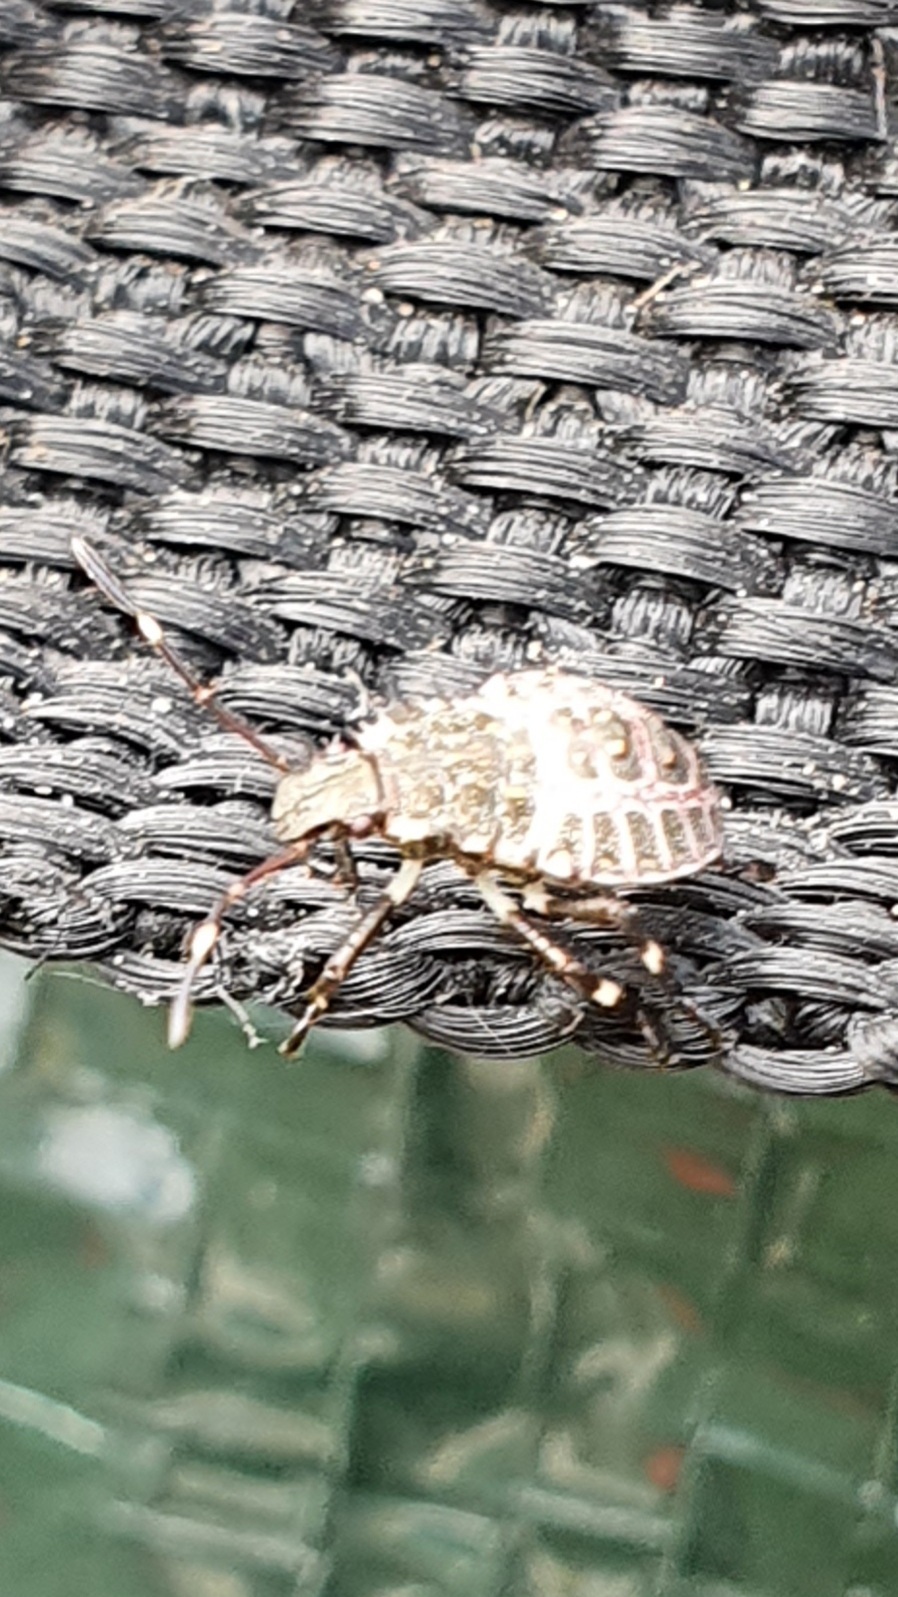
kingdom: Animalia
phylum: Arthropoda
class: Insecta
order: Hemiptera
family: Pentatomidae
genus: Halyomorpha
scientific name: Halyomorpha halys
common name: Brown marmorated stink bug
